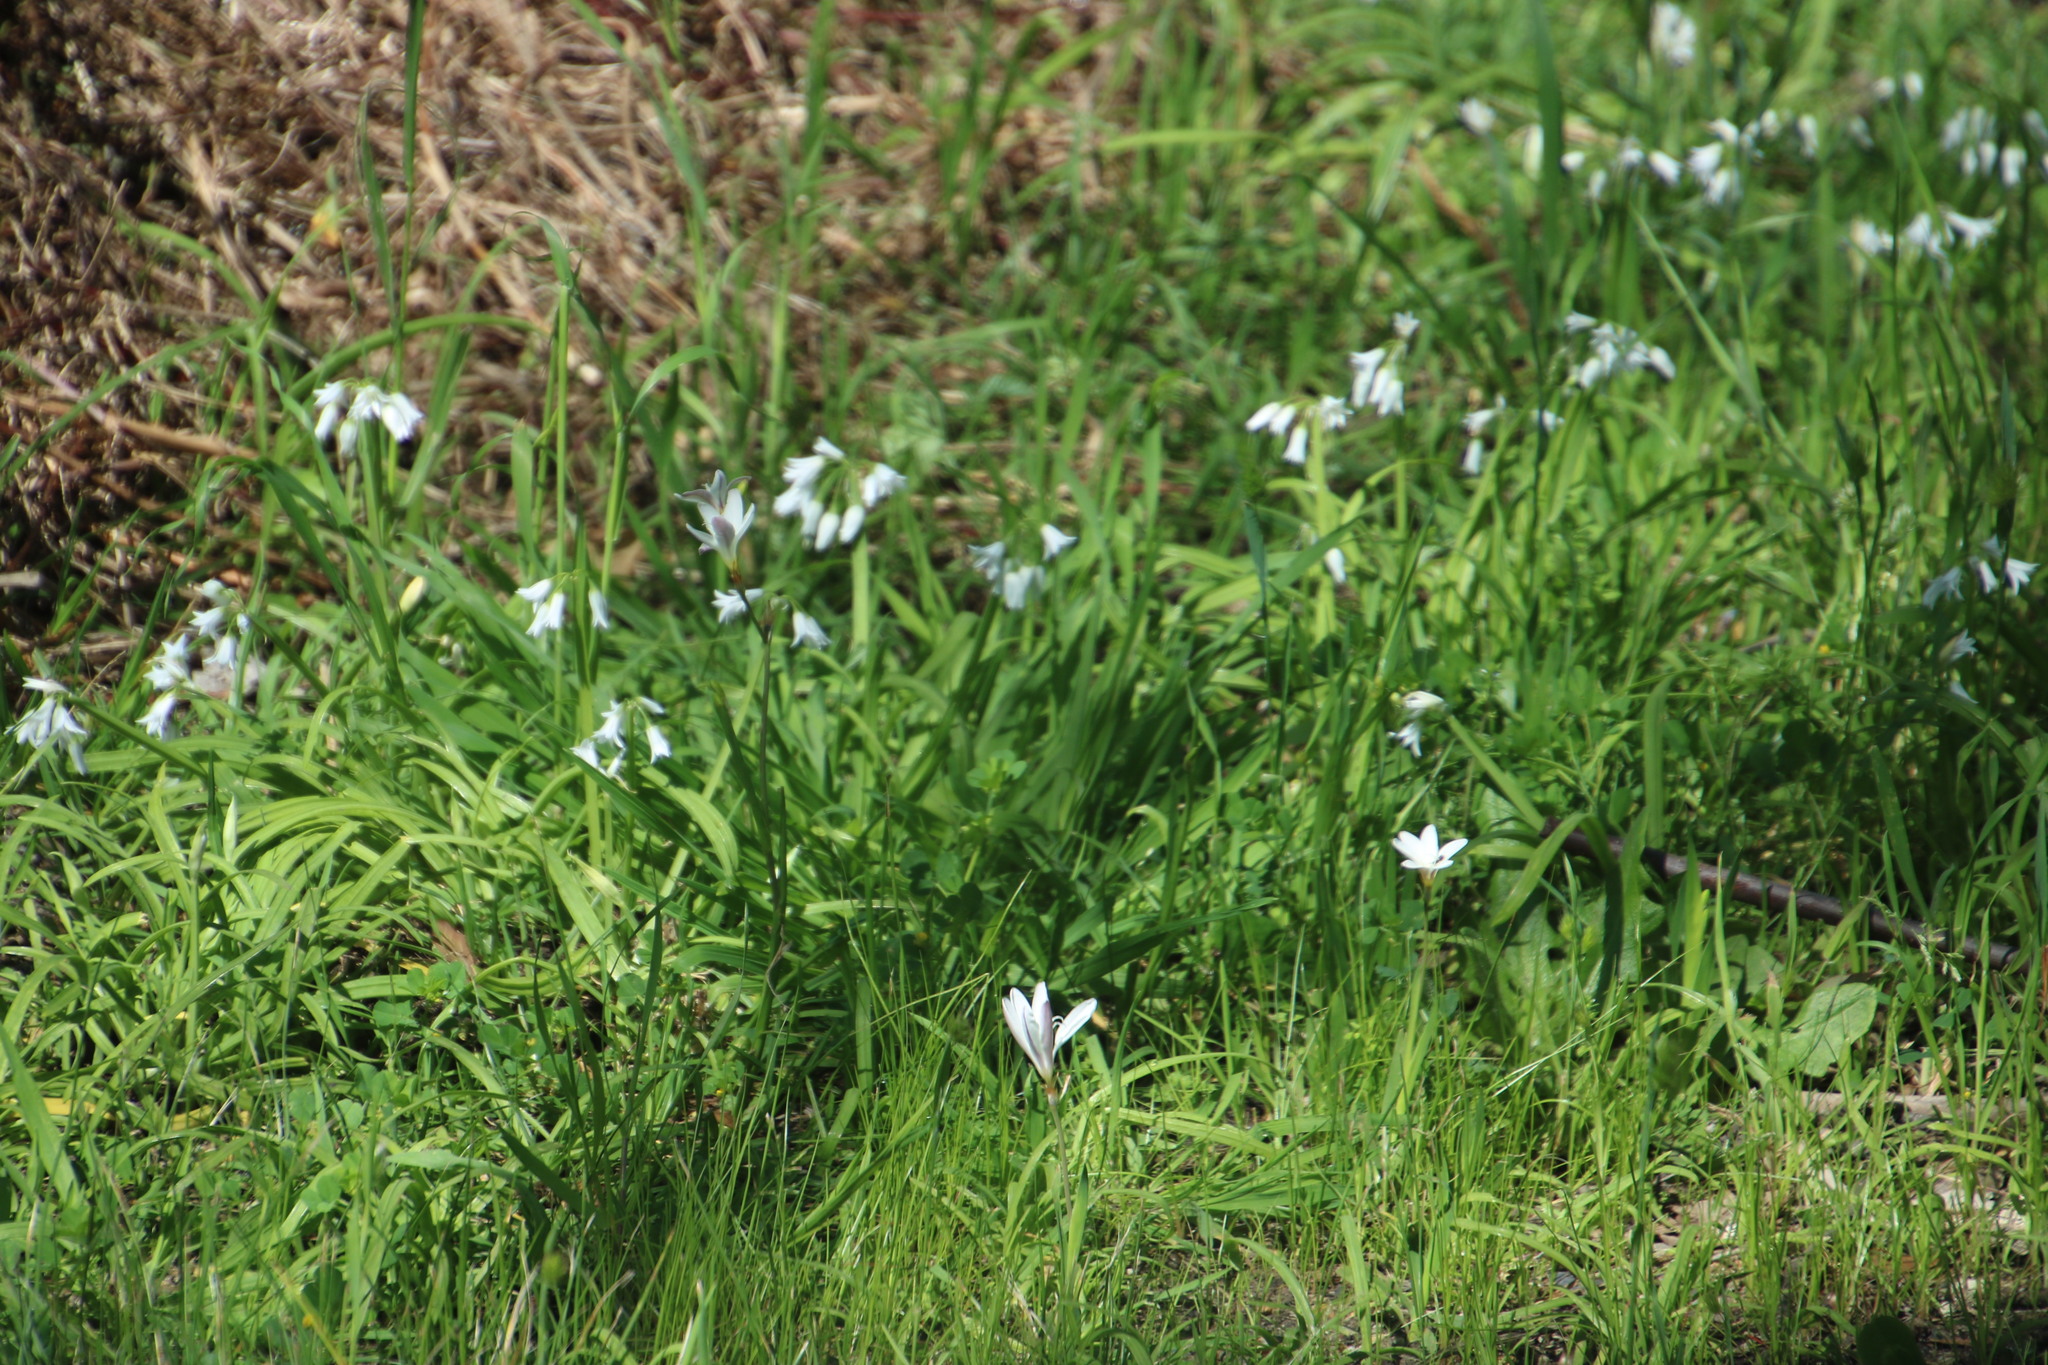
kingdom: Plantae
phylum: Tracheophyta
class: Liliopsida
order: Asparagales
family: Amaryllidaceae
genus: Allium
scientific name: Allium triquetrum
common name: Three-cornered garlic
